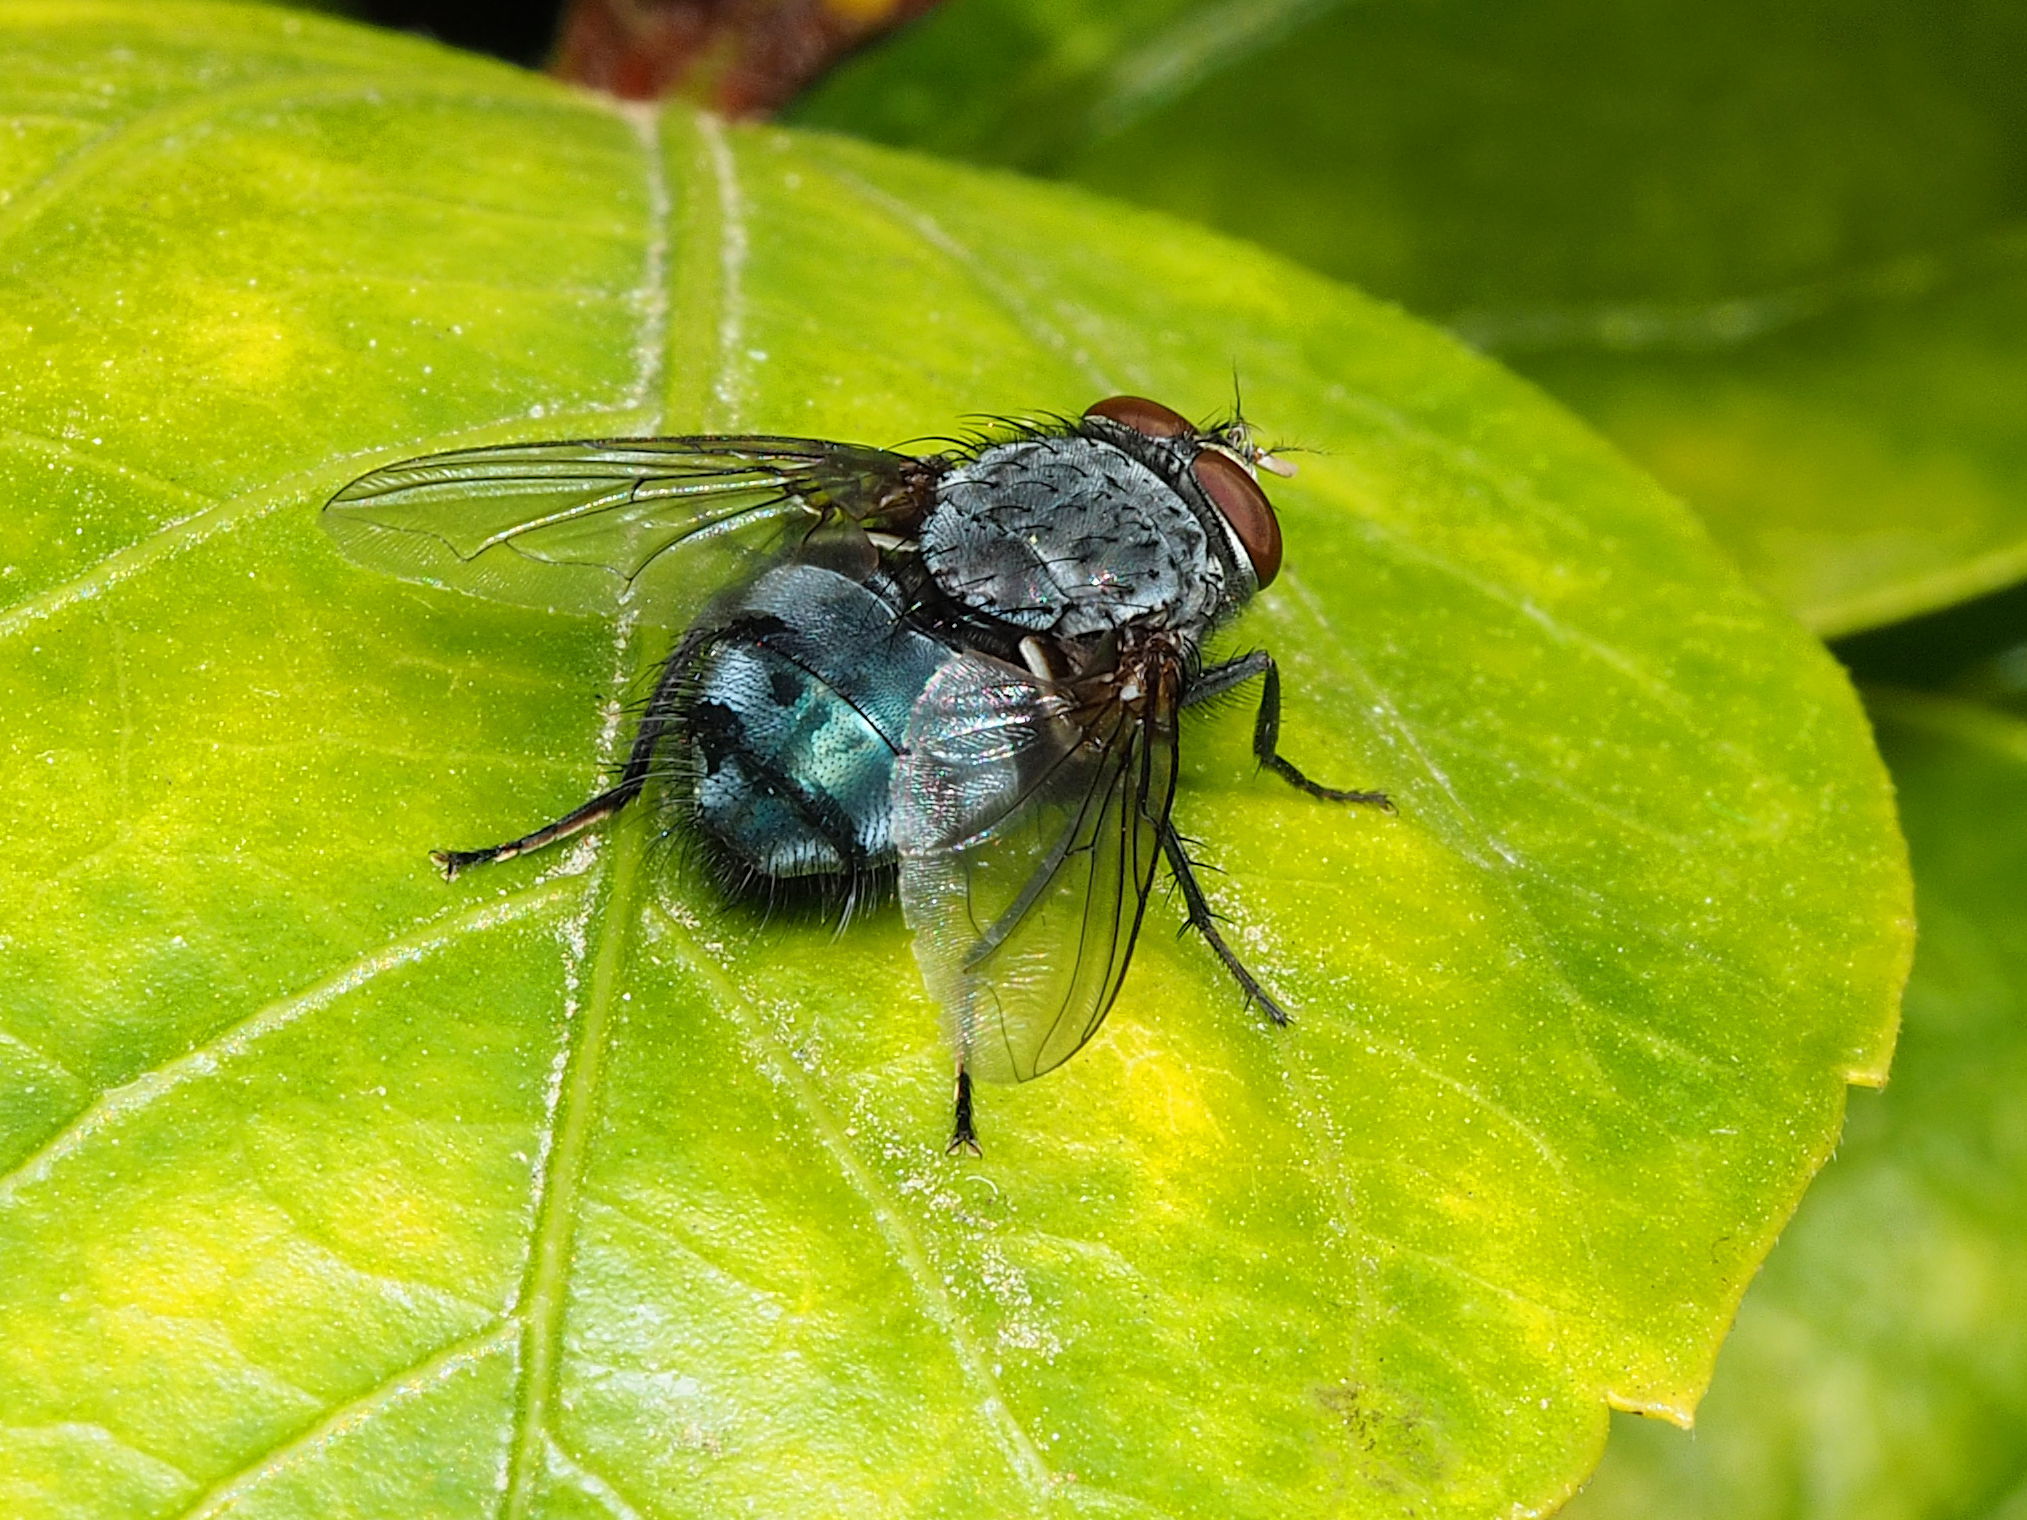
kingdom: Animalia
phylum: Arthropoda
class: Insecta
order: Diptera
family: Calliphoridae
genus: Calliphora
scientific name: Calliphora vicina
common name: Common blow flie
